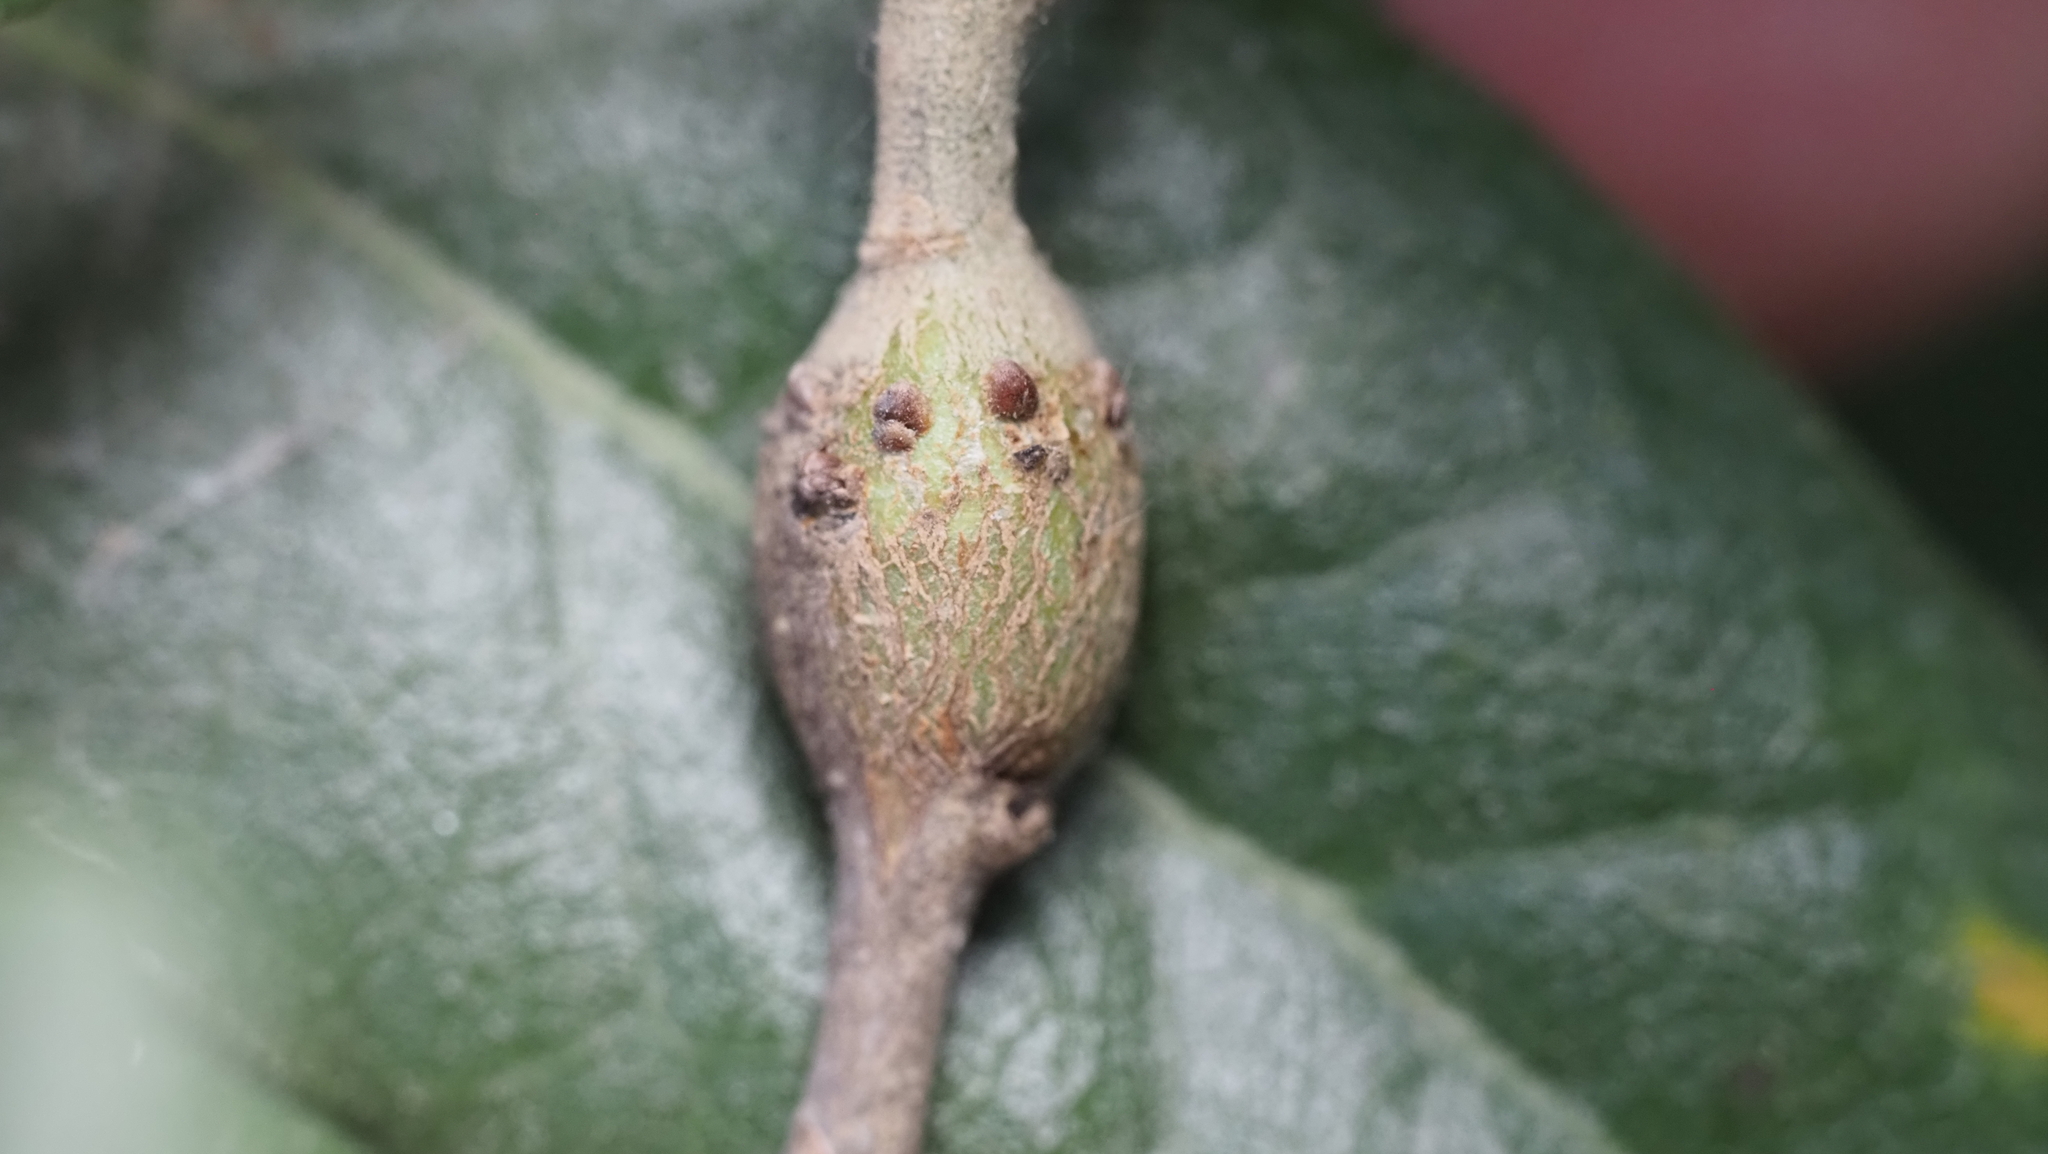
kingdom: Animalia
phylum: Arthropoda
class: Insecta
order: Hymenoptera
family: Cynipidae
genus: Callirhytis
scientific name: Callirhytis
